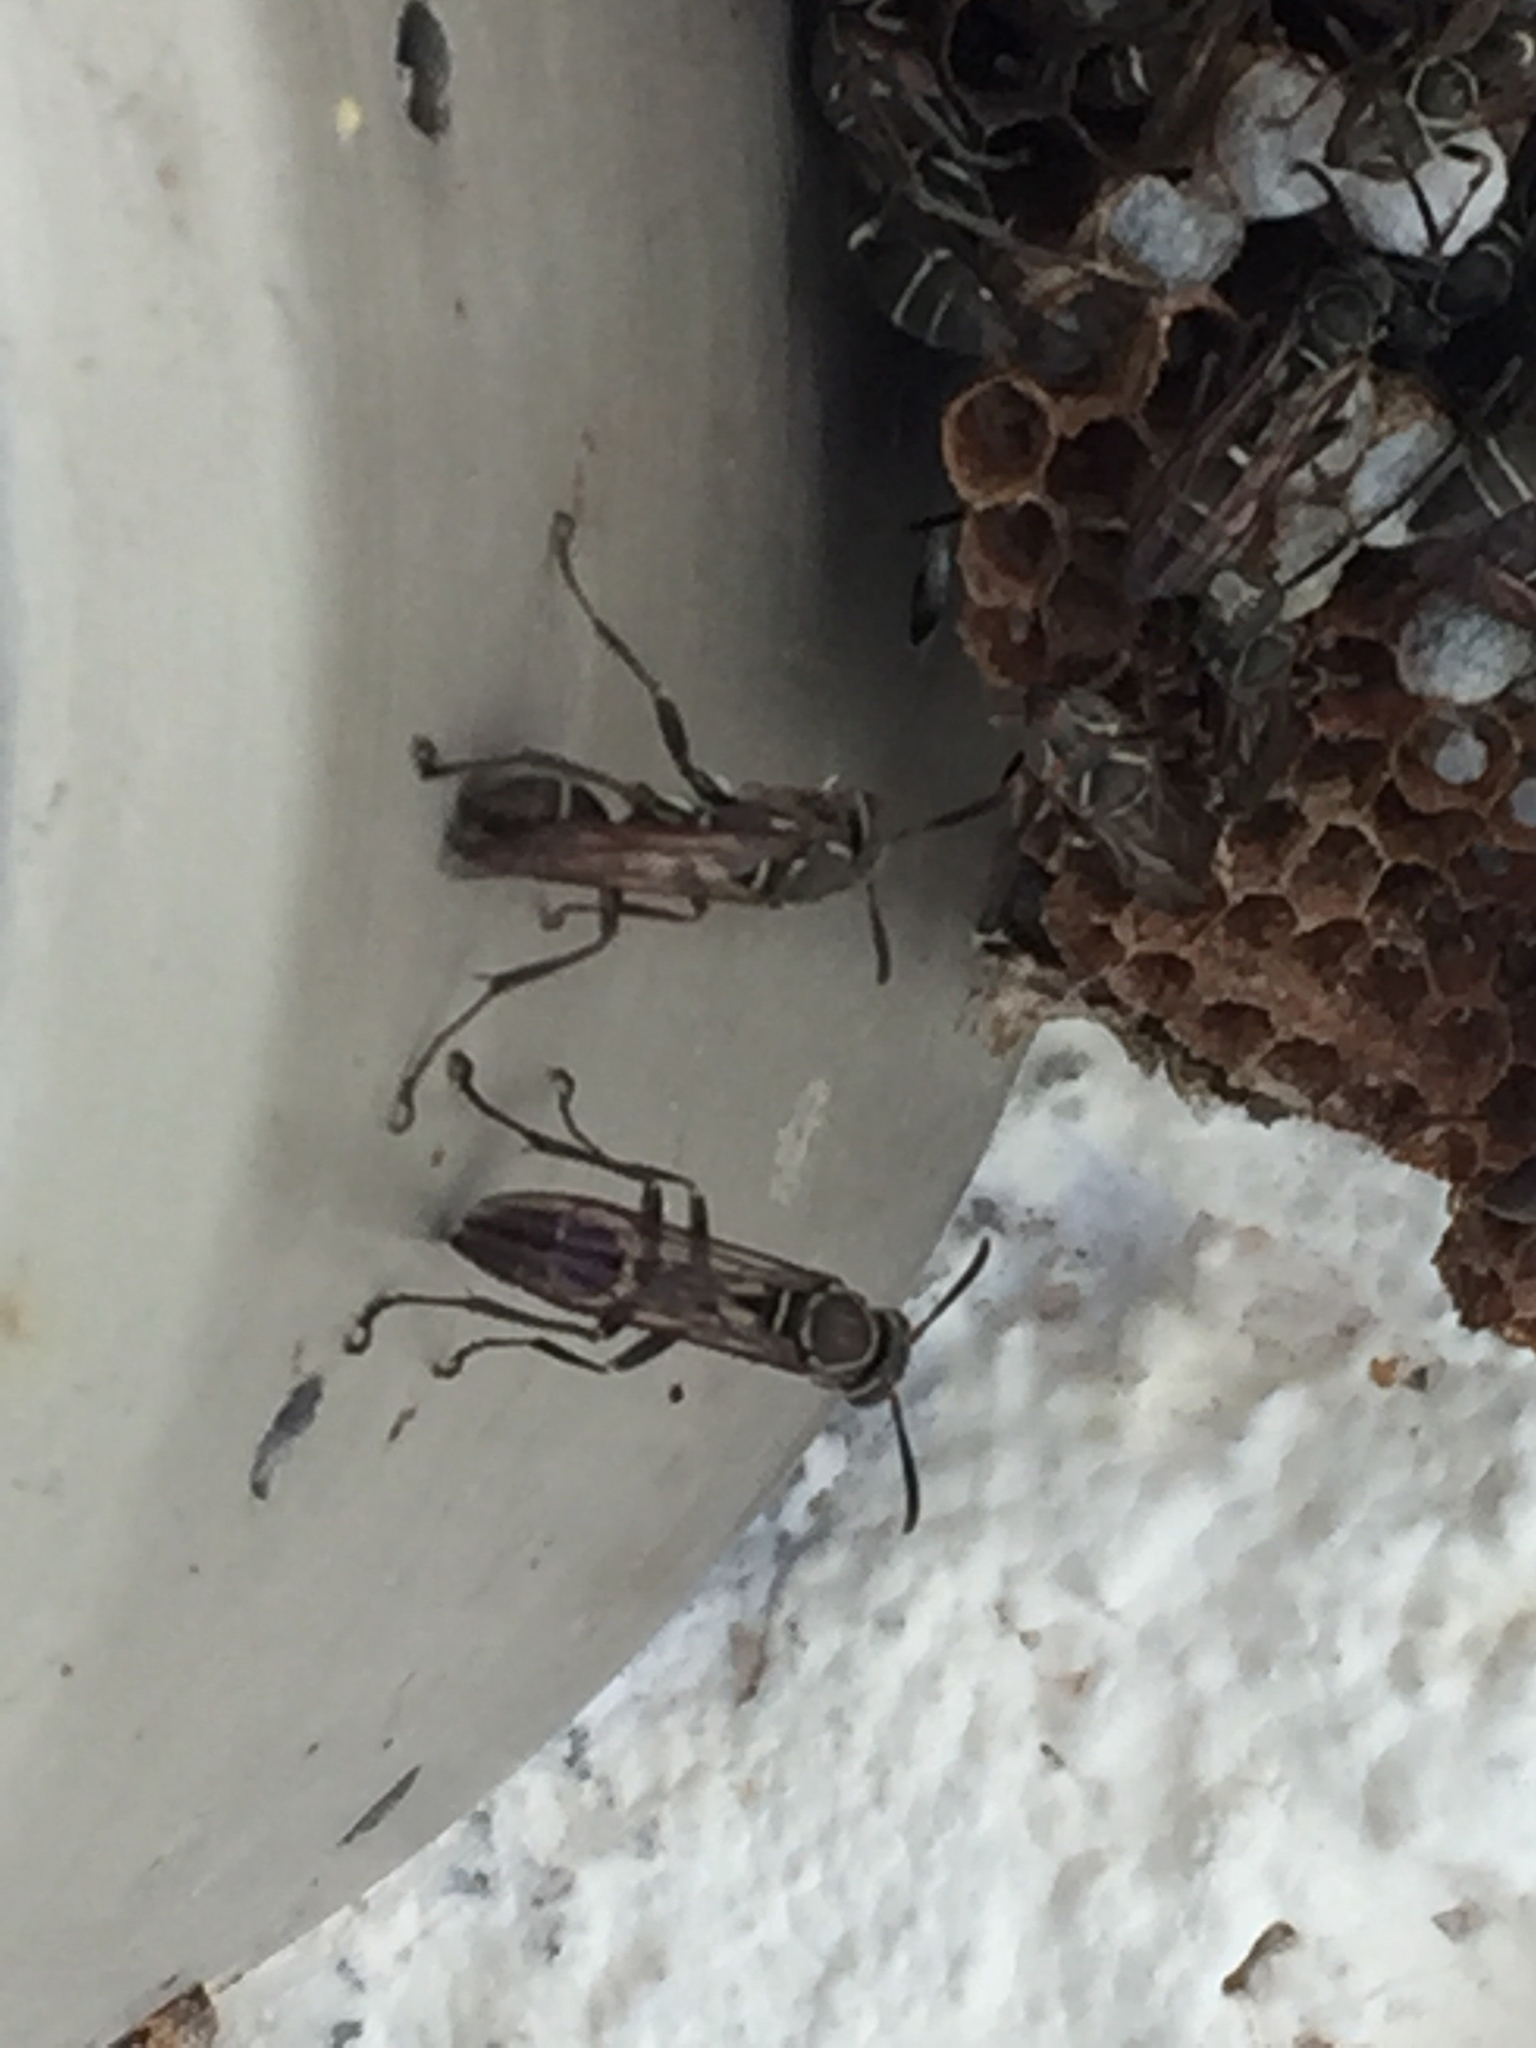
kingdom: Animalia
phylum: Arthropoda
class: Insecta
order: Hymenoptera
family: Vespidae
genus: Mischocyttarus
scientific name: Mischocyttarus mexicanus
